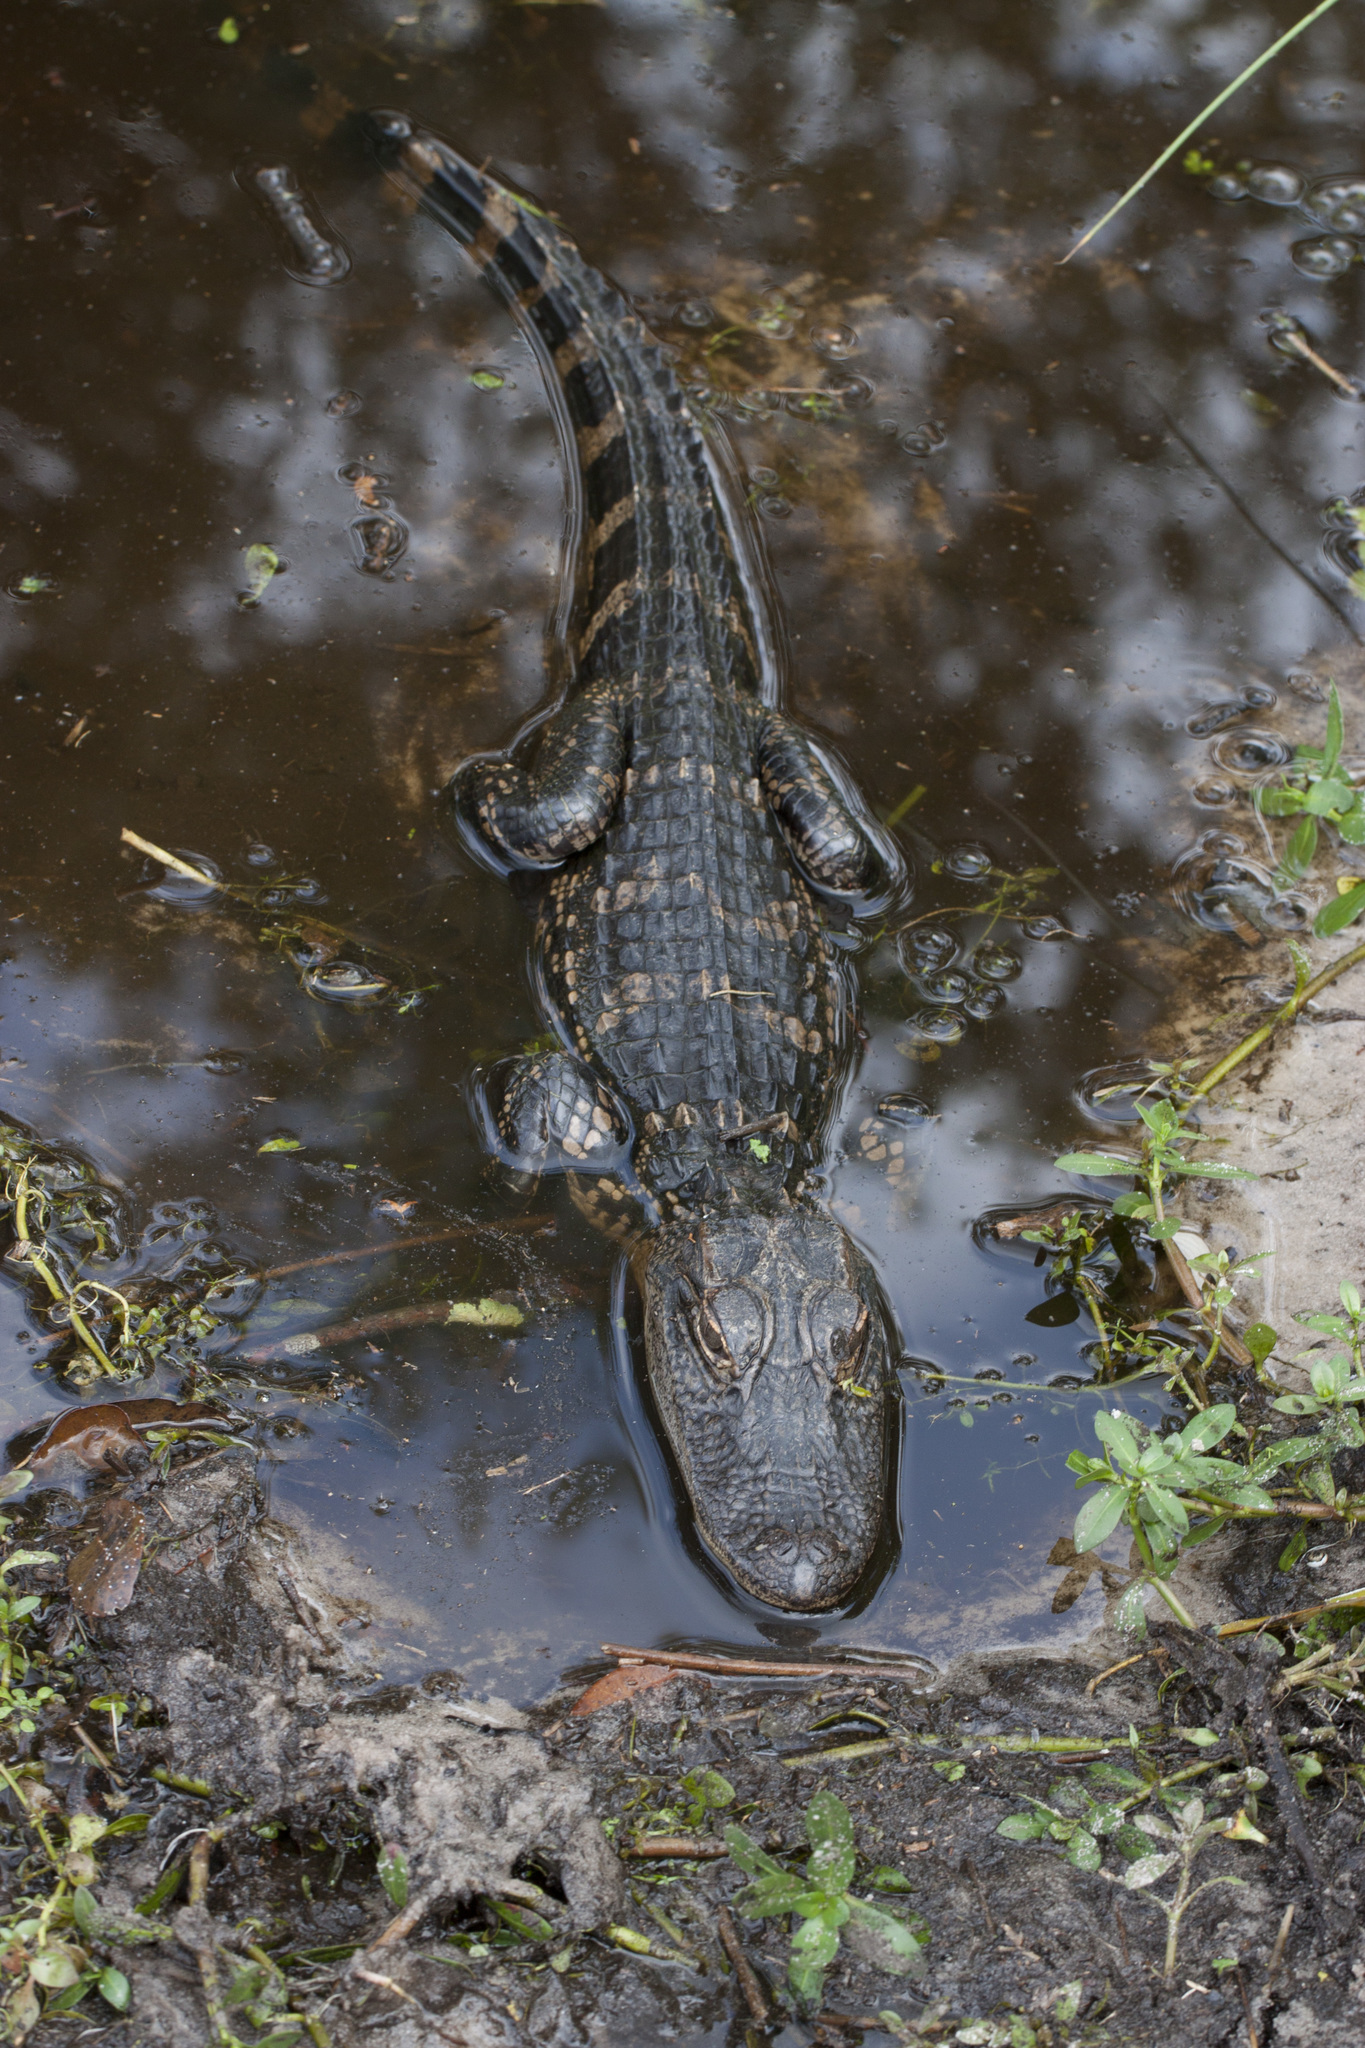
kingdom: Animalia
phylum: Chordata
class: Crocodylia
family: Alligatoridae
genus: Alligator
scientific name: Alligator mississippiensis
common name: American alligator
